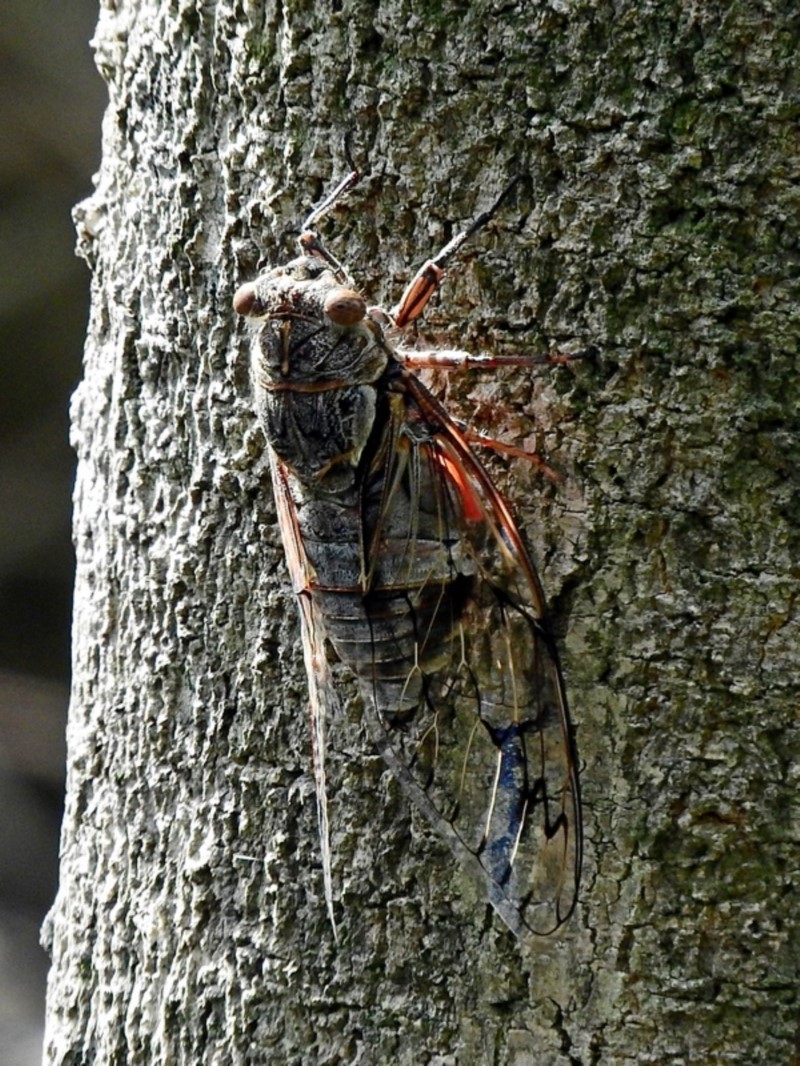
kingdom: Animalia
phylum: Arthropoda
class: Insecta
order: Hemiptera
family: Cicadidae
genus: Henicopsaltria
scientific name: Henicopsaltria eydouxii
